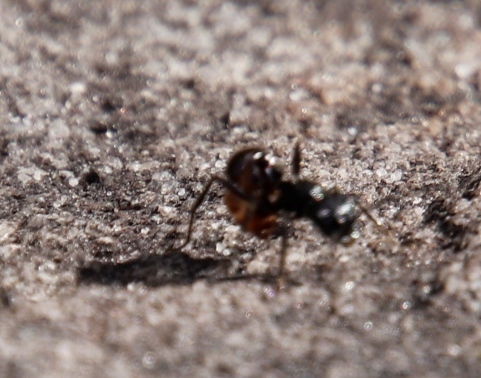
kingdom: Animalia
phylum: Arthropoda
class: Insecta
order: Hymenoptera
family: Formicidae
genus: Myrmicaria
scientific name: Myrmicaria nigra
